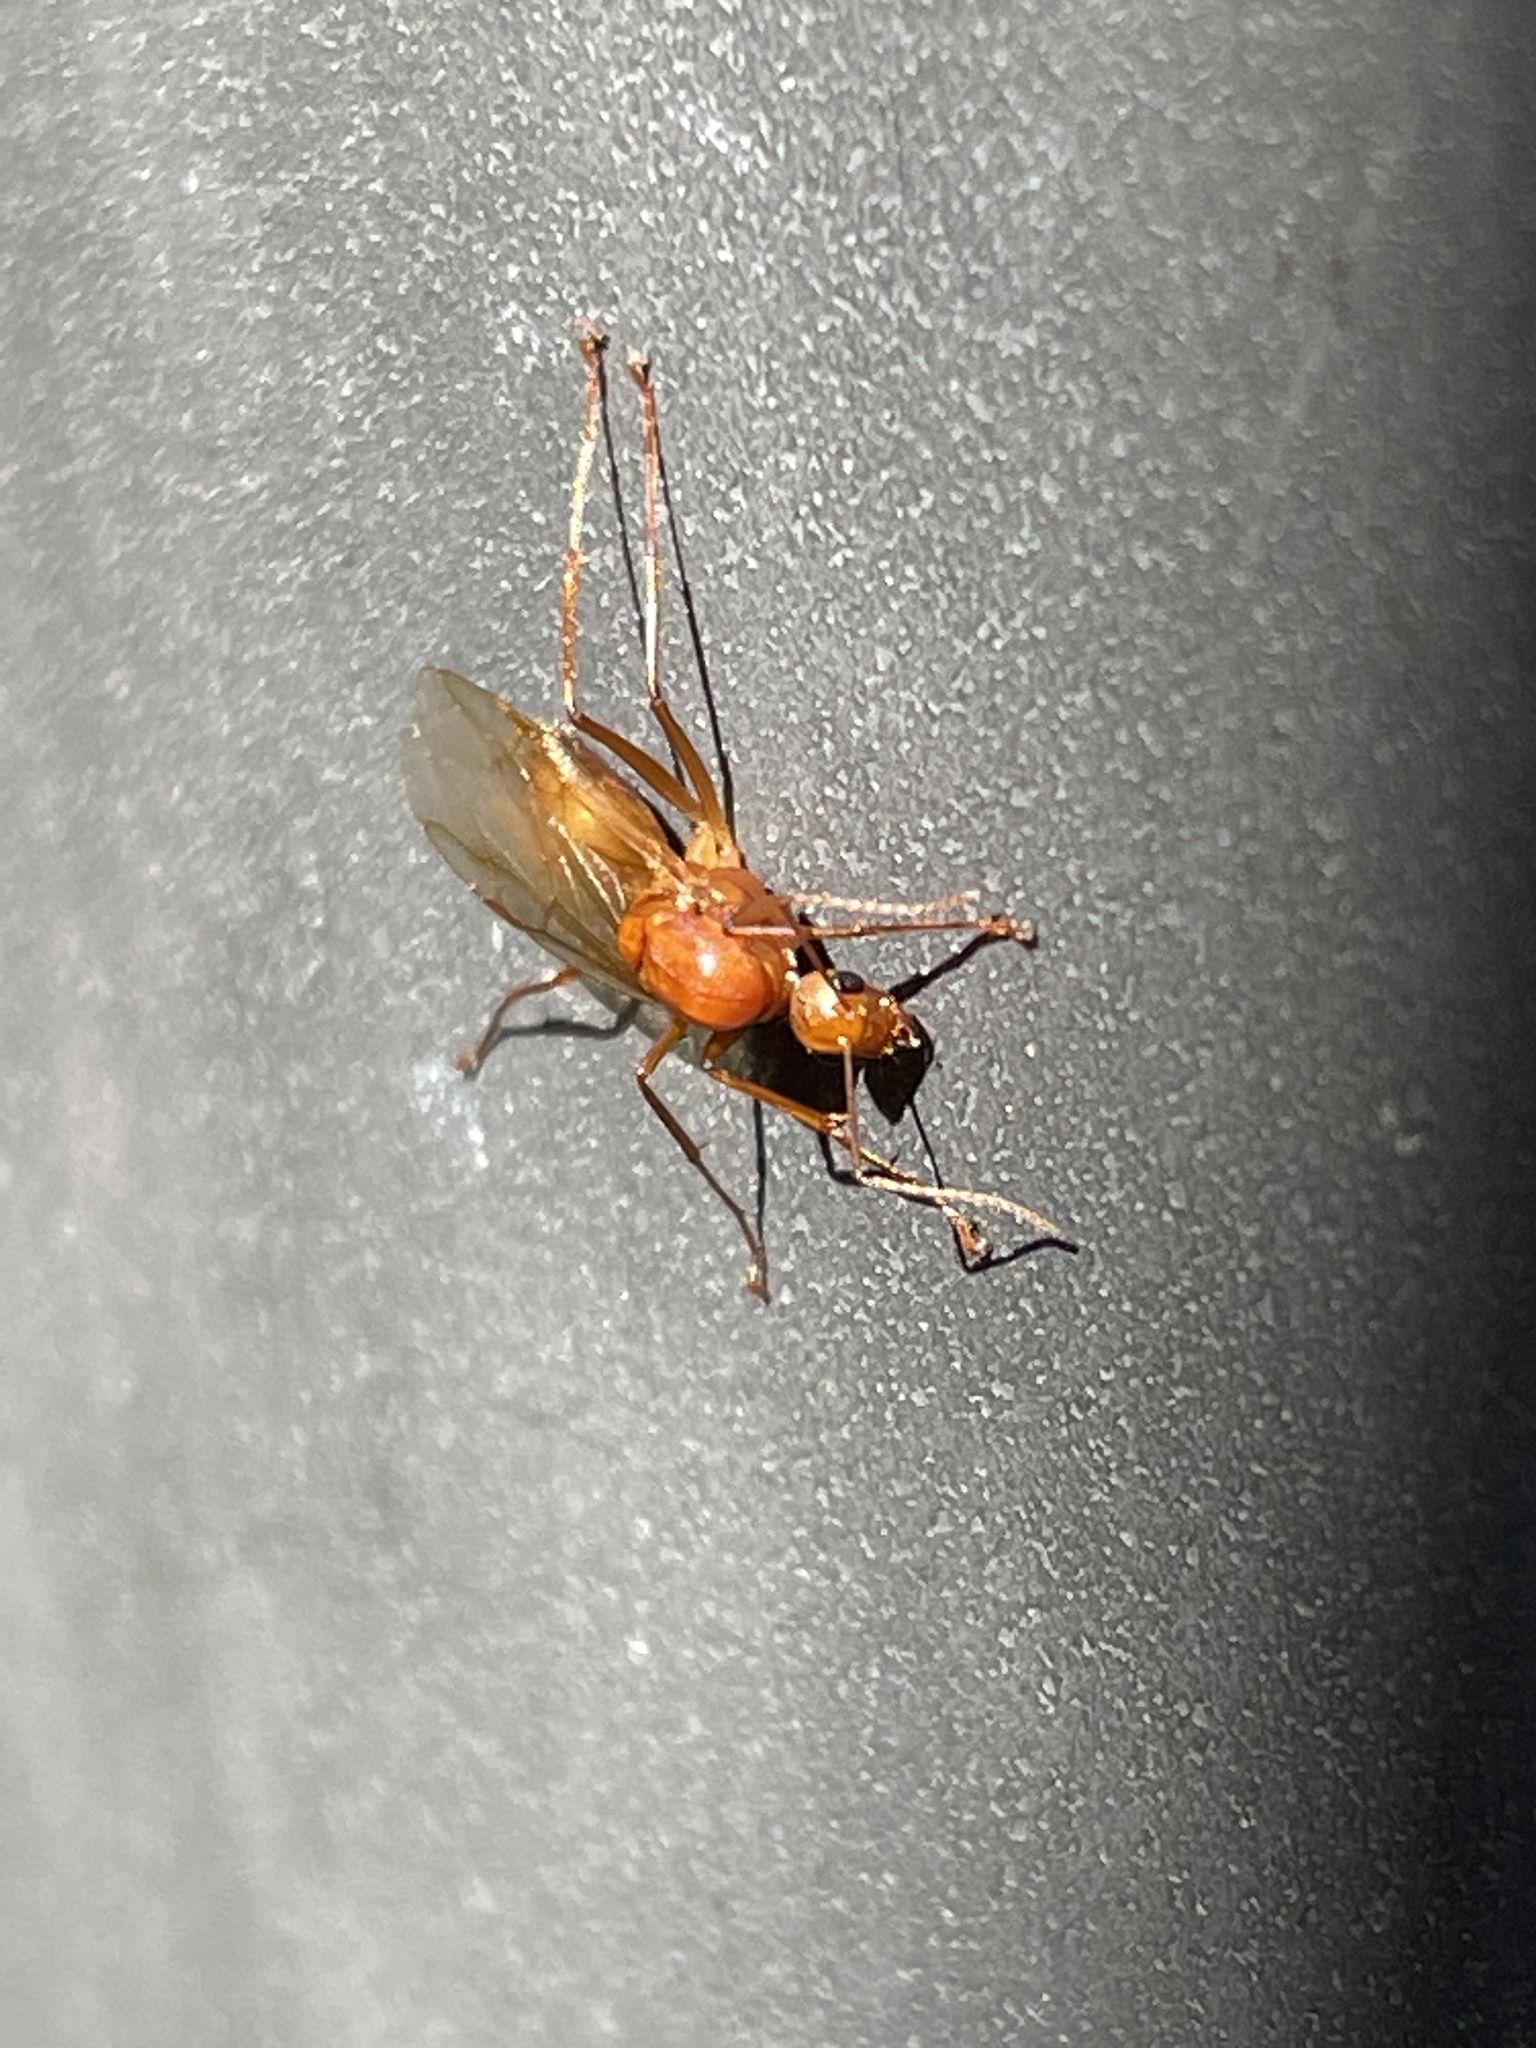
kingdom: Animalia
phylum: Arthropoda
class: Insecta
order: Hymenoptera
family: Formicidae
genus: Camponotus
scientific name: Camponotus castaneus
